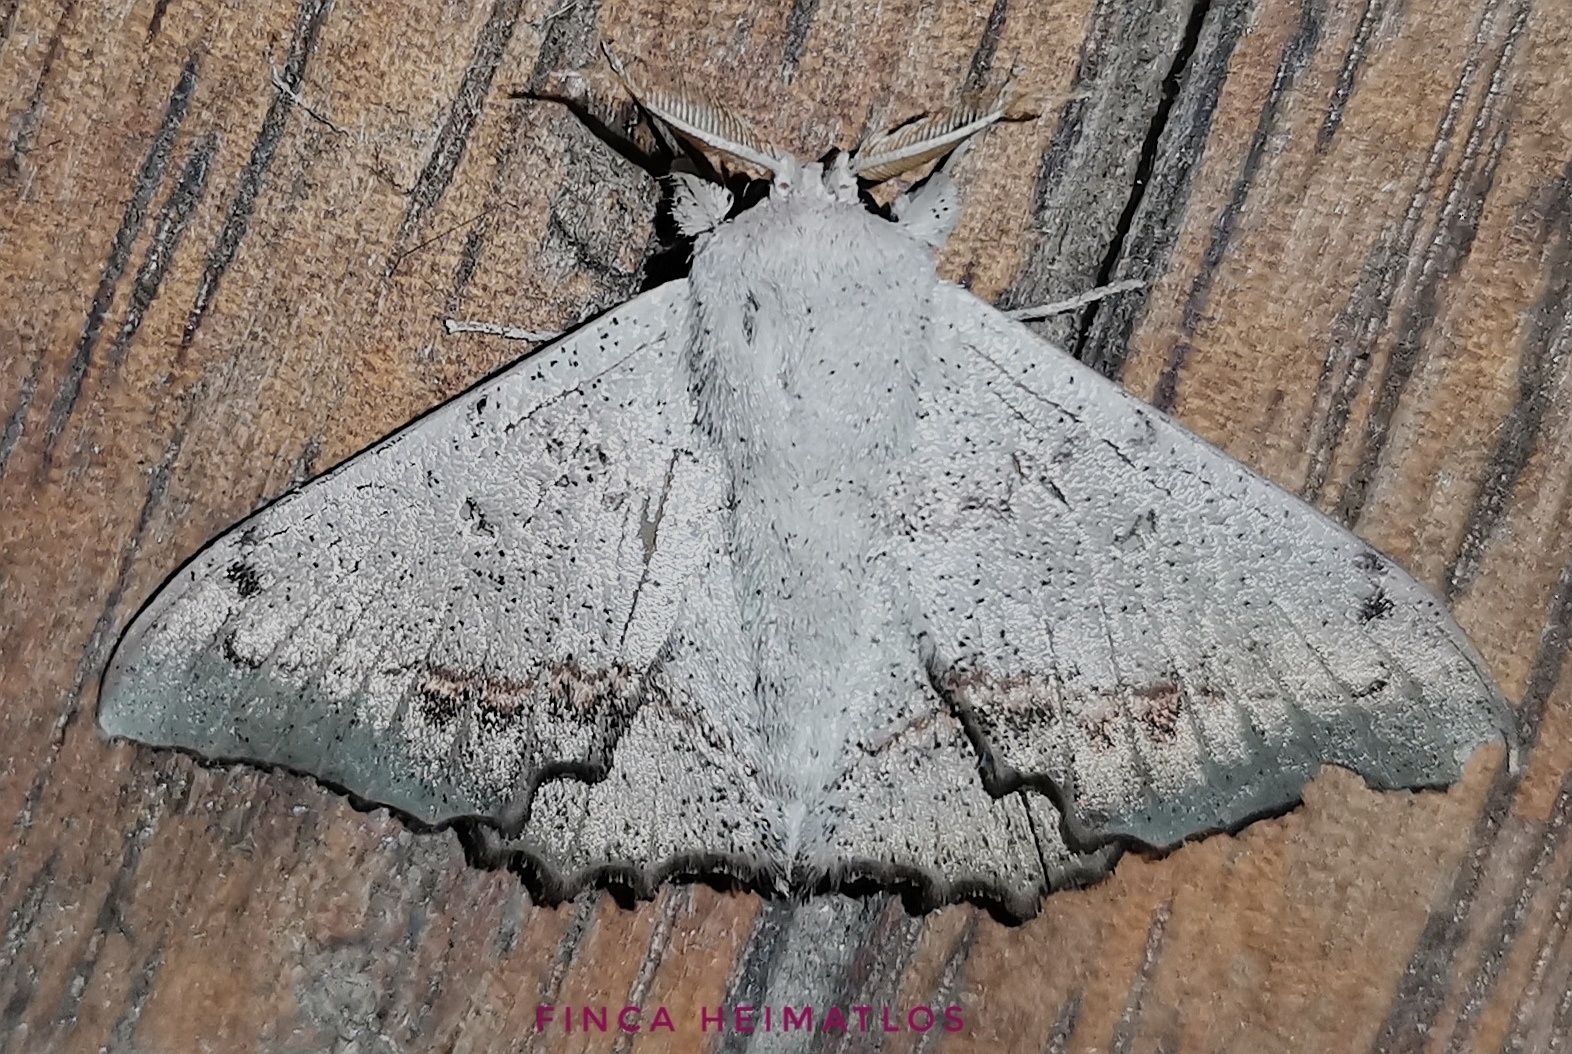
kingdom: Animalia
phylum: Arthropoda
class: Insecta
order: Lepidoptera
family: Mimallonidae
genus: Mimallo
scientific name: Mimallo brosica
